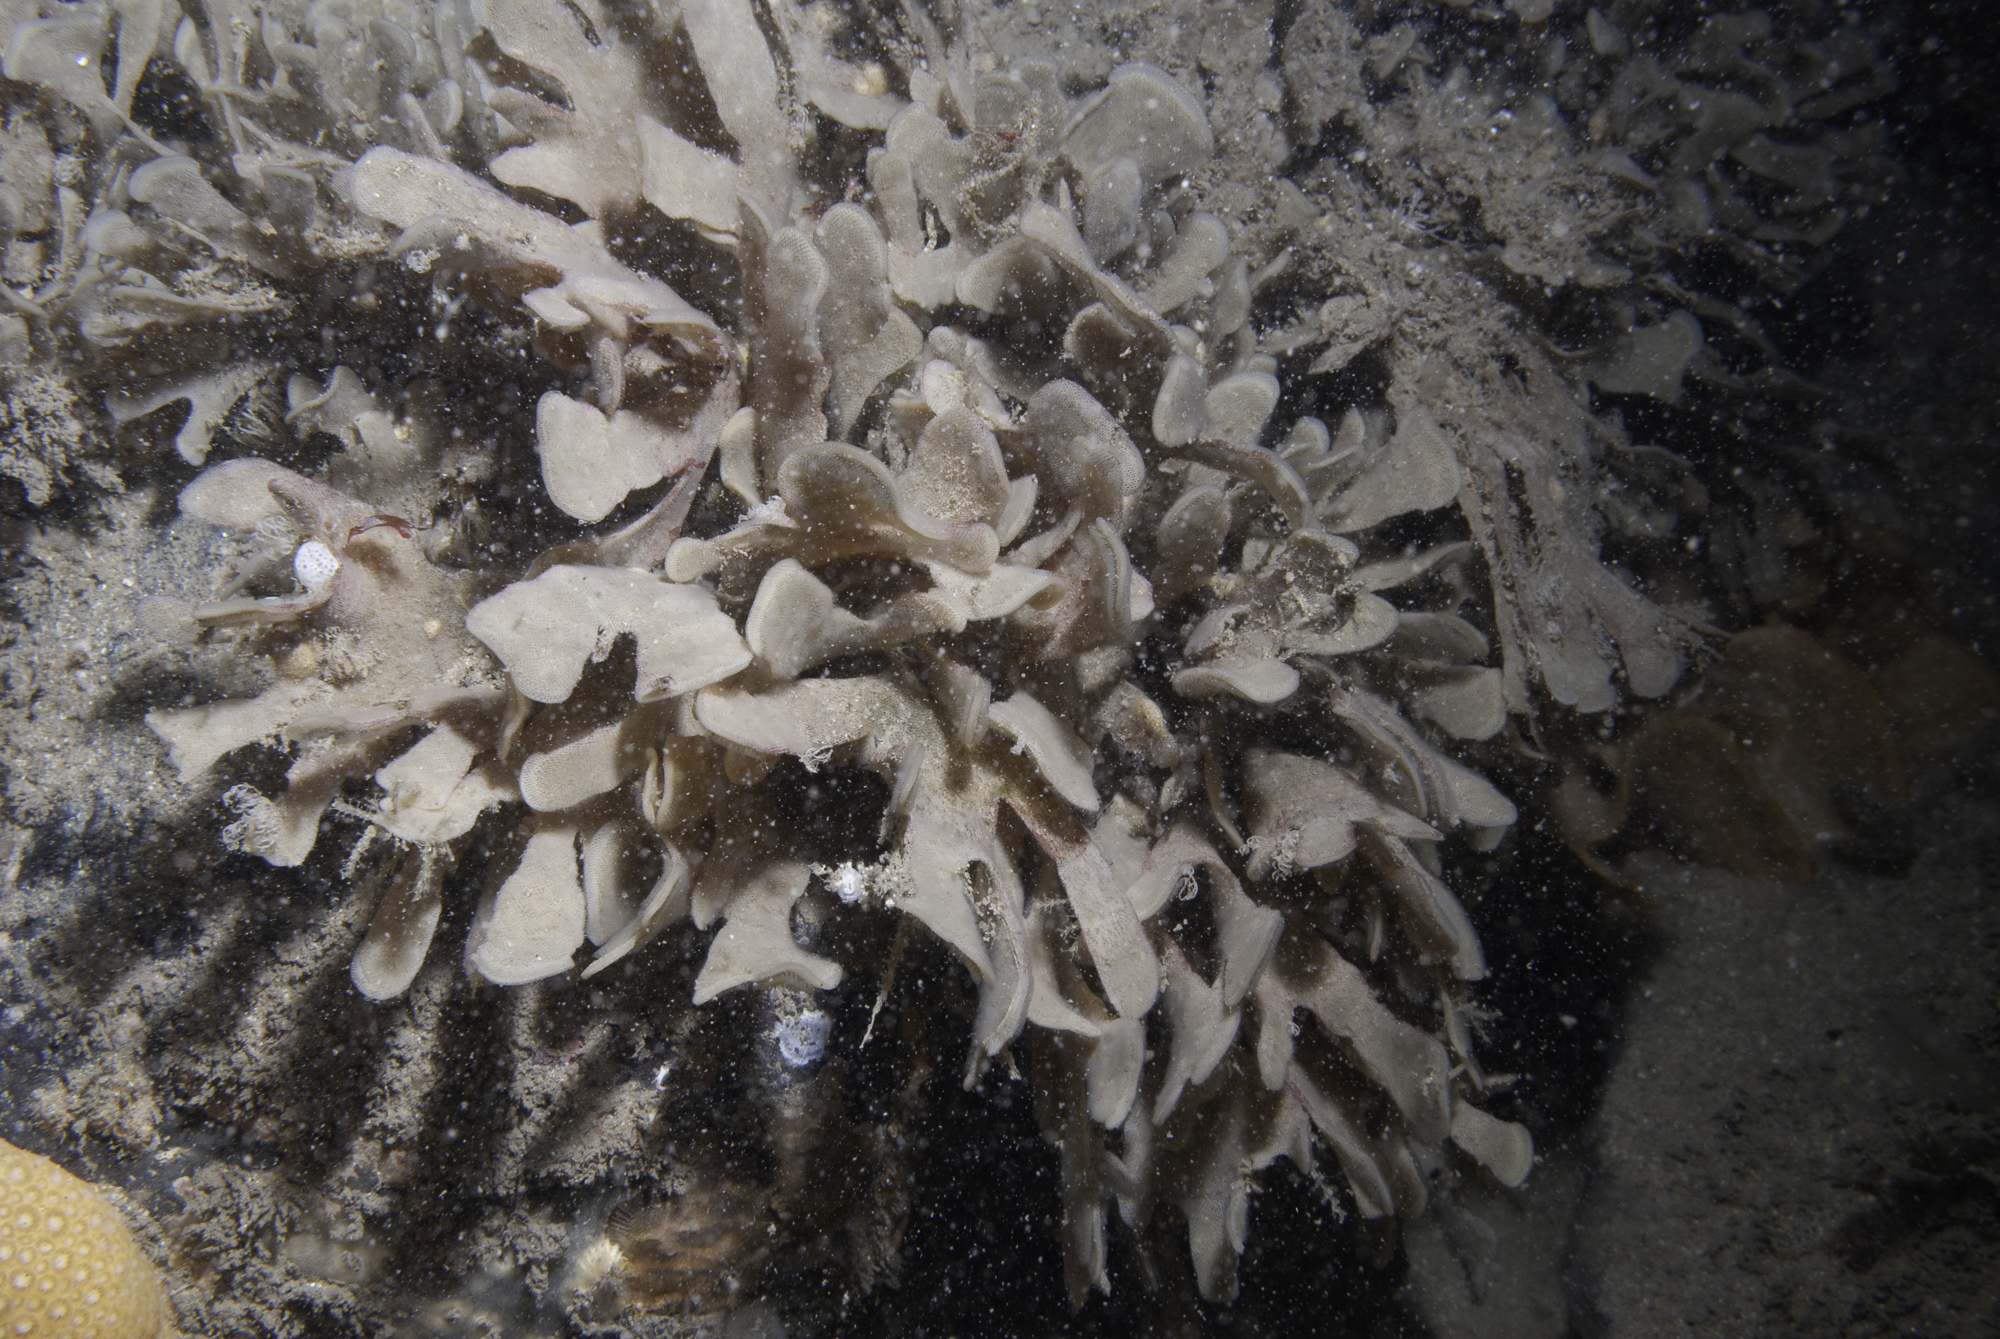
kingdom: Animalia
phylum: Bryozoa
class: Gymnolaemata
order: Cheilostomatida
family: Flustridae
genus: Flustra
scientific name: Flustra foliacea
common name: Hornwrack
